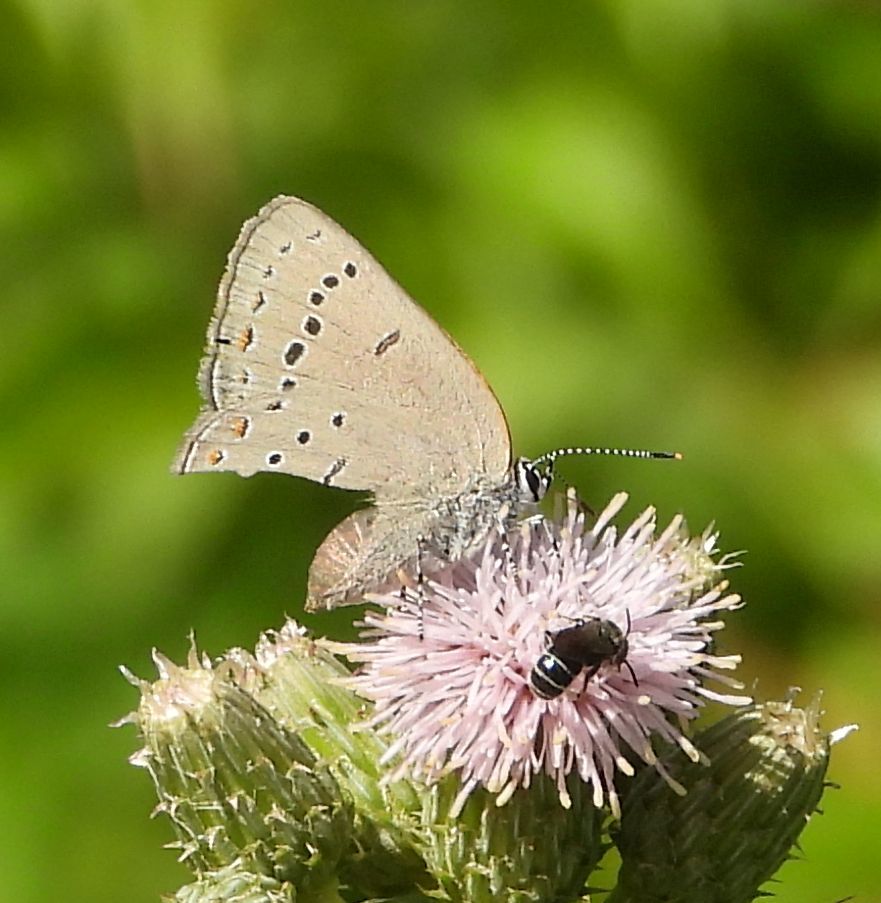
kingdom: Animalia
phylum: Arthropoda
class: Insecta
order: Lepidoptera
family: Lycaenidae
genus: Strymon
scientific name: Strymon acadica
